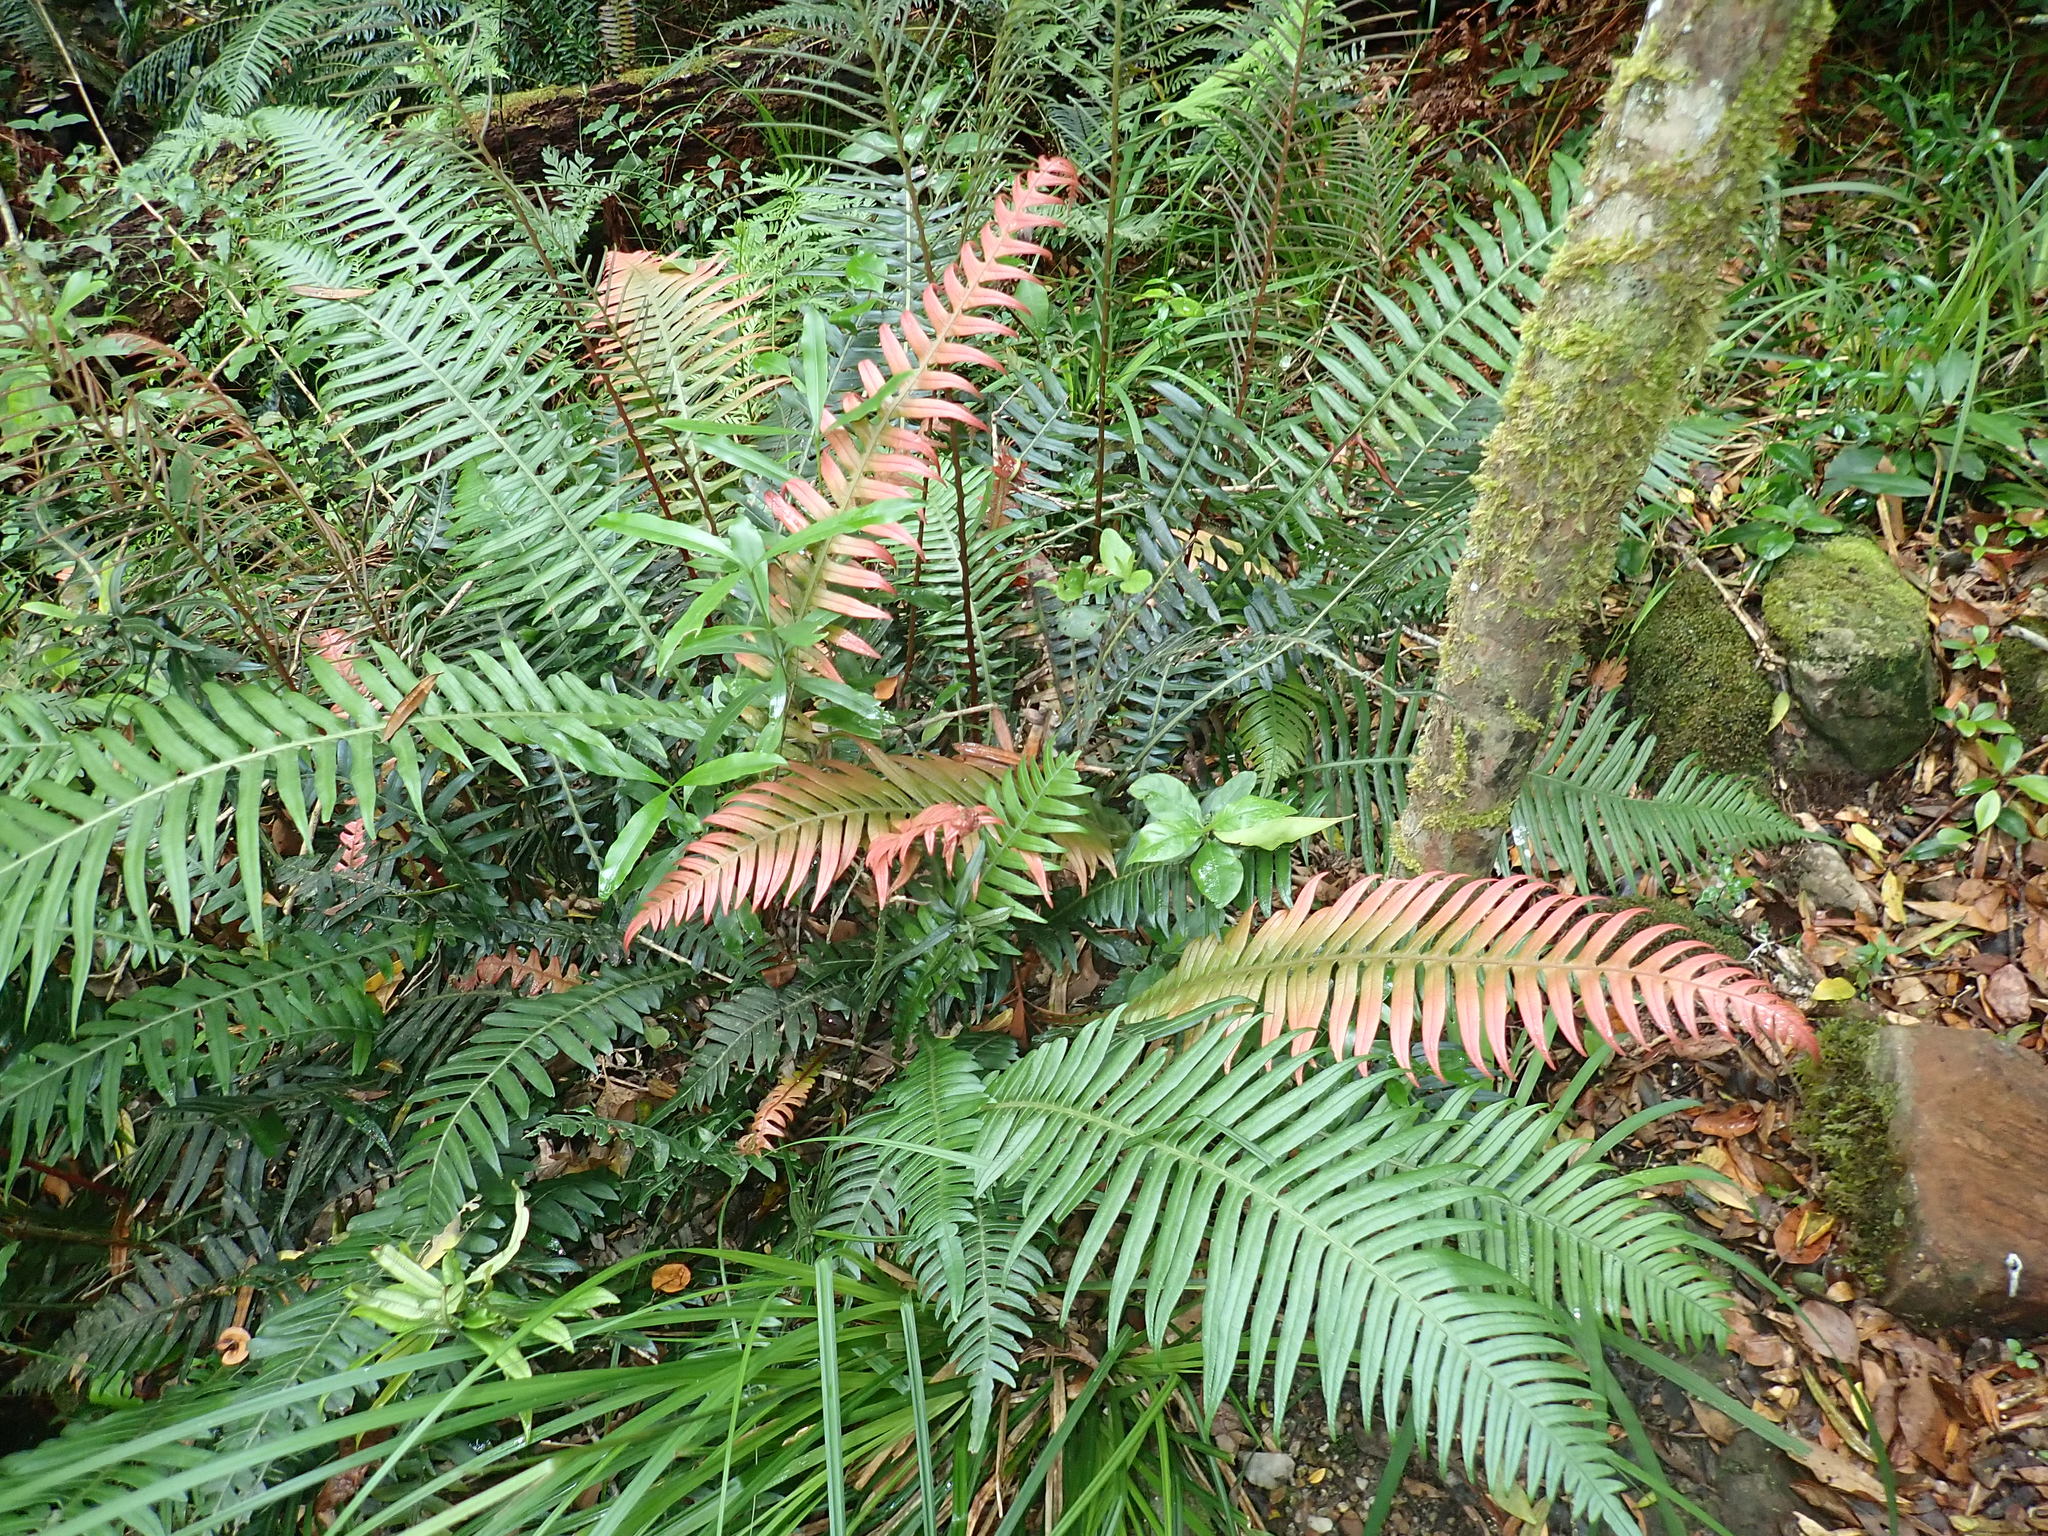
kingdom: Plantae
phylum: Tracheophyta
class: Polypodiopsida
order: Polypodiales
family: Blechnaceae
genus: Lomaridium
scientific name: Lomaridium attenuatum
